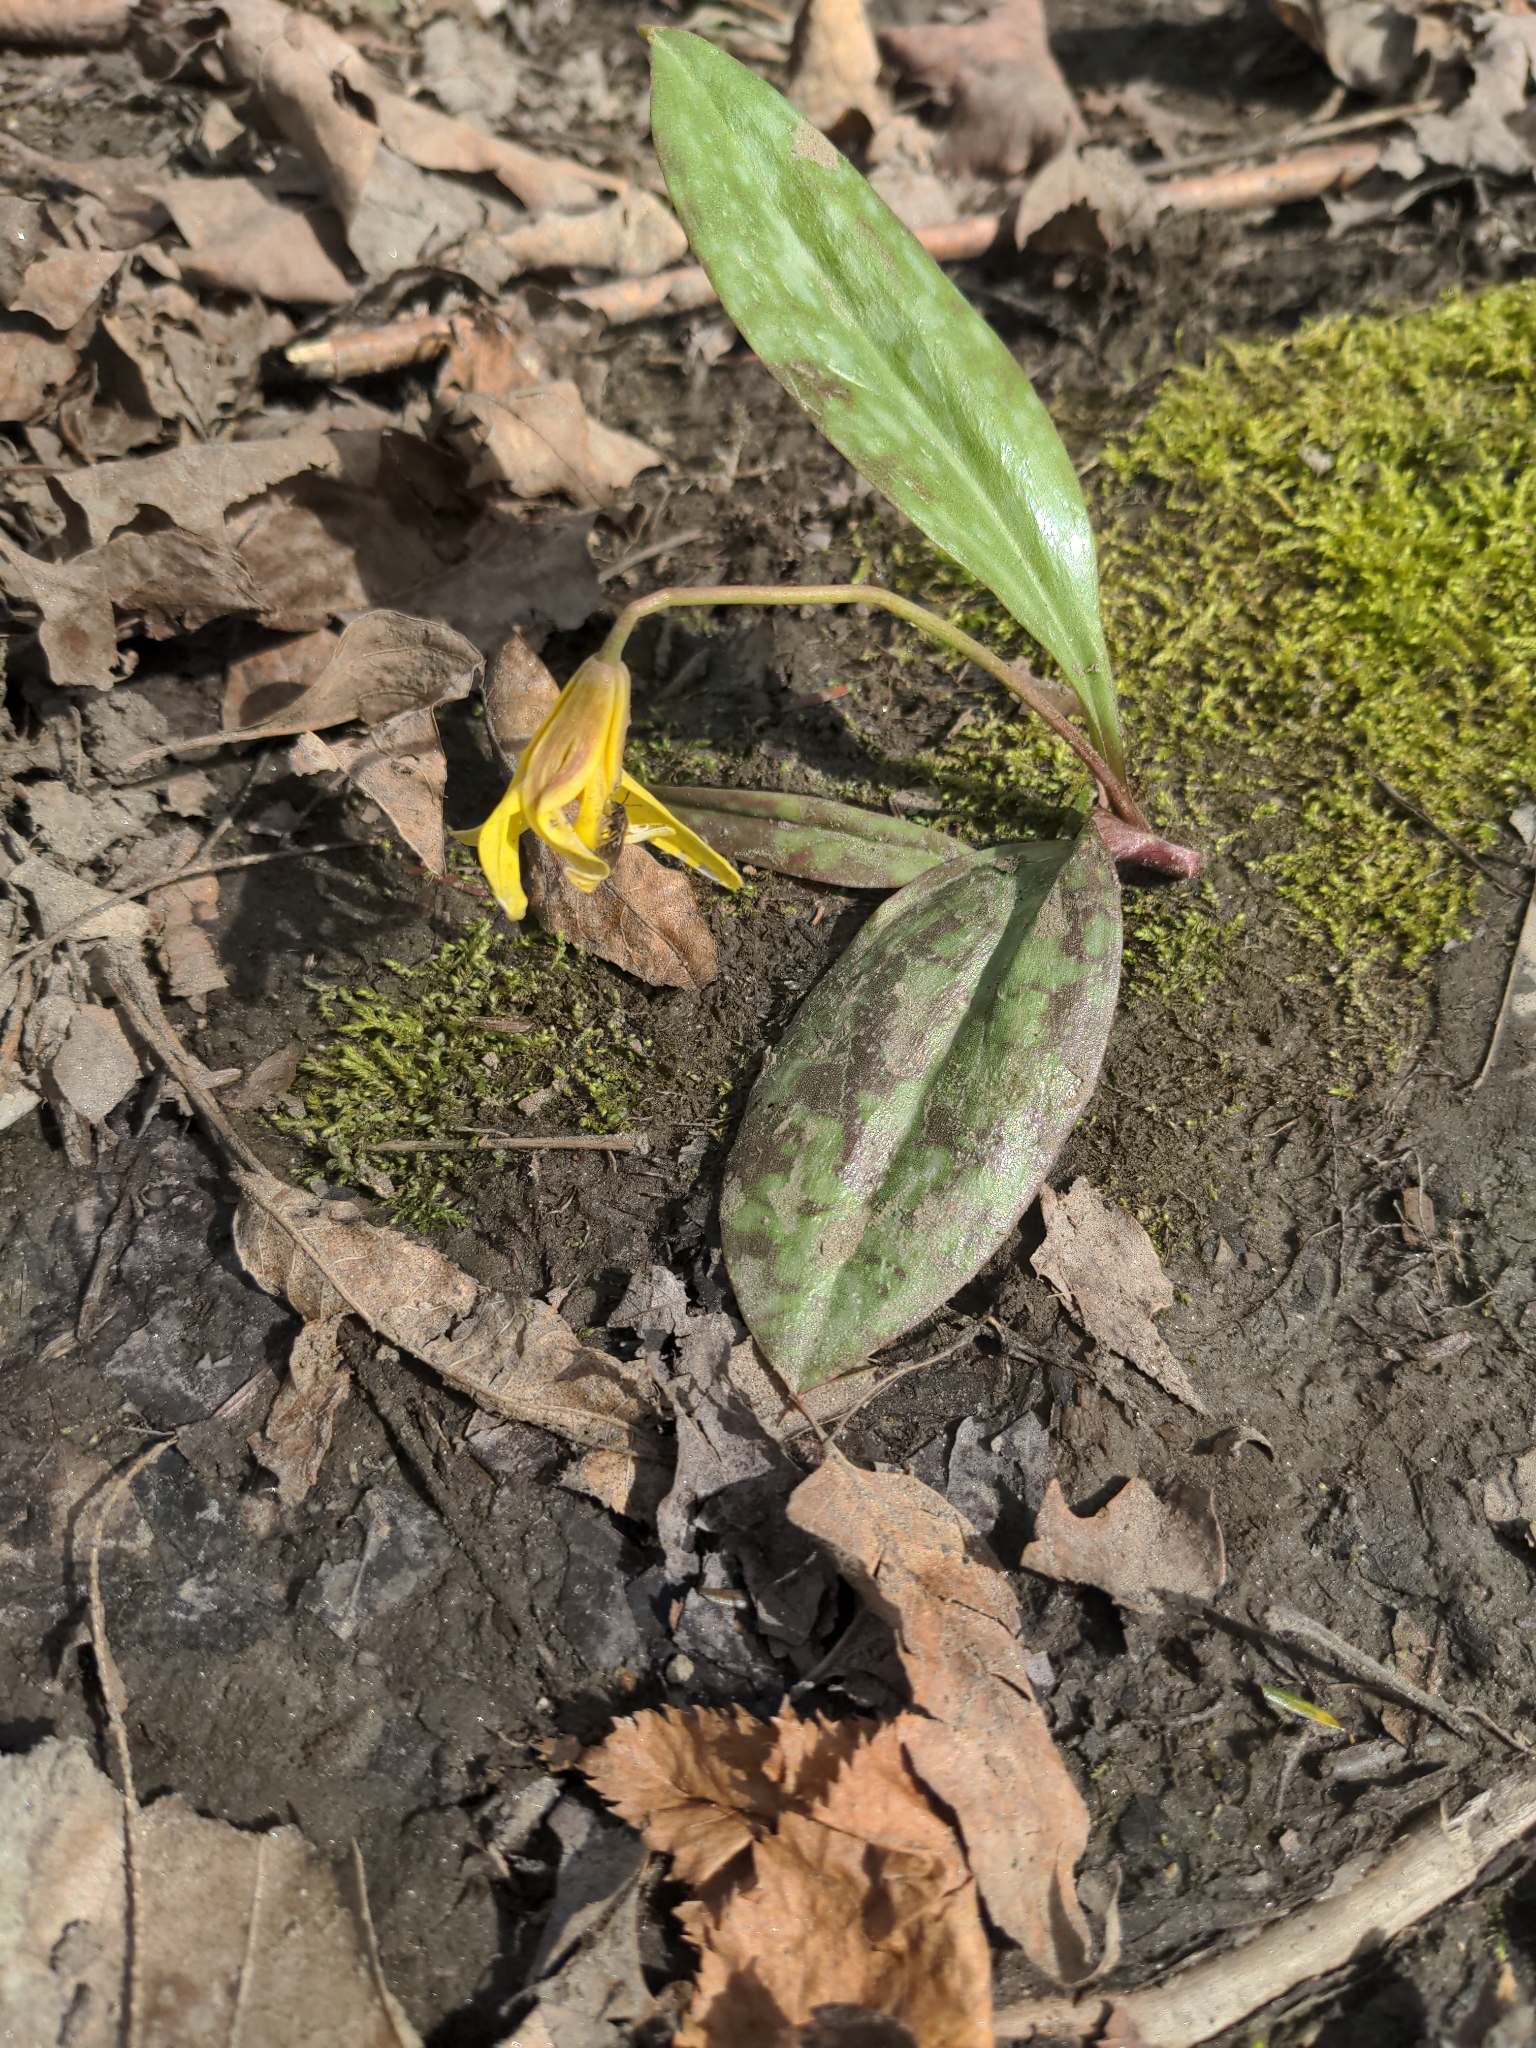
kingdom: Plantae
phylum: Tracheophyta
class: Liliopsida
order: Liliales
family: Liliaceae
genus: Erythronium
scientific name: Erythronium americanum
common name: Yellow adder's-tongue
